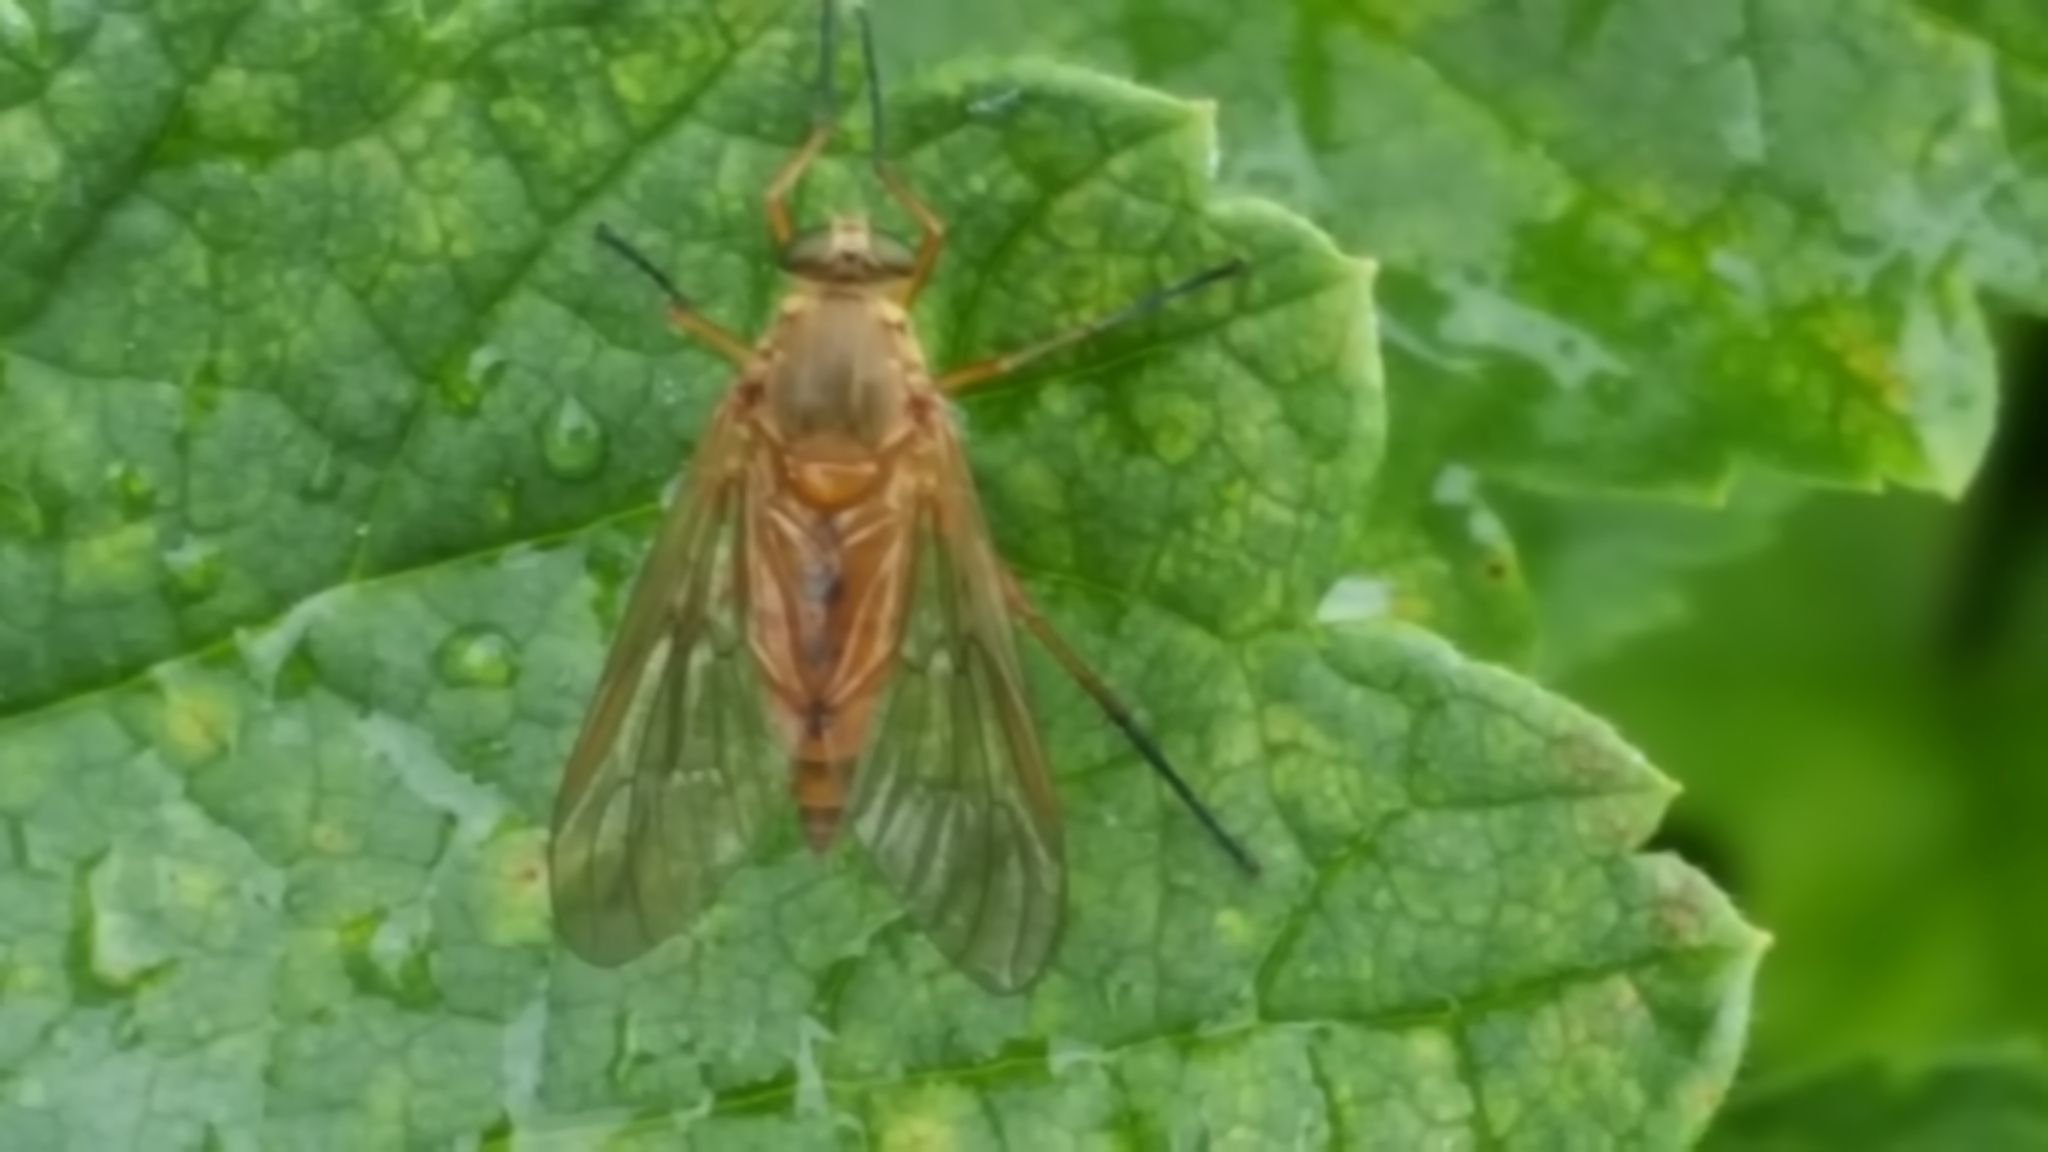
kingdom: Animalia
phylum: Arthropoda
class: Insecta
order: Diptera
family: Rhagionidae
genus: Rhagio
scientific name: Rhagio tringaria
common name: Marsh snipefly
